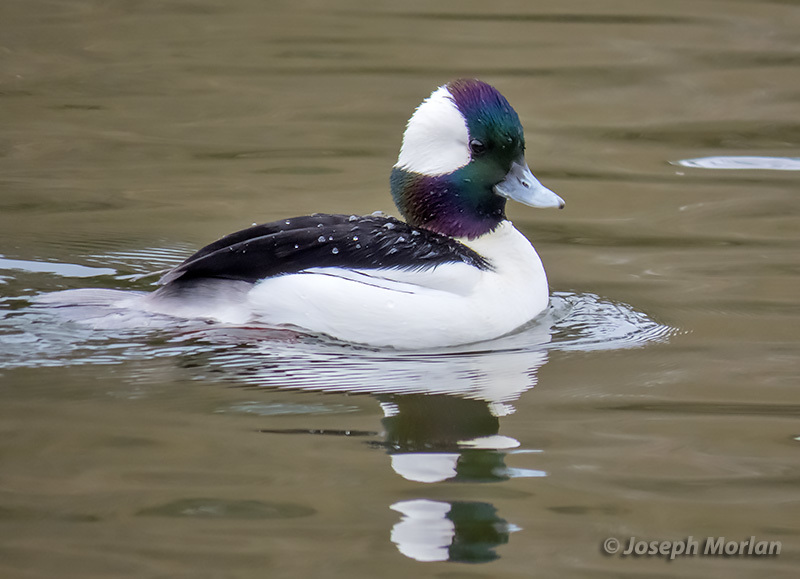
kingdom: Animalia
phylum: Chordata
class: Aves
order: Anseriformes
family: Anatidae
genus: Bucephala
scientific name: Bucephala albeola
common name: Bufflehead
